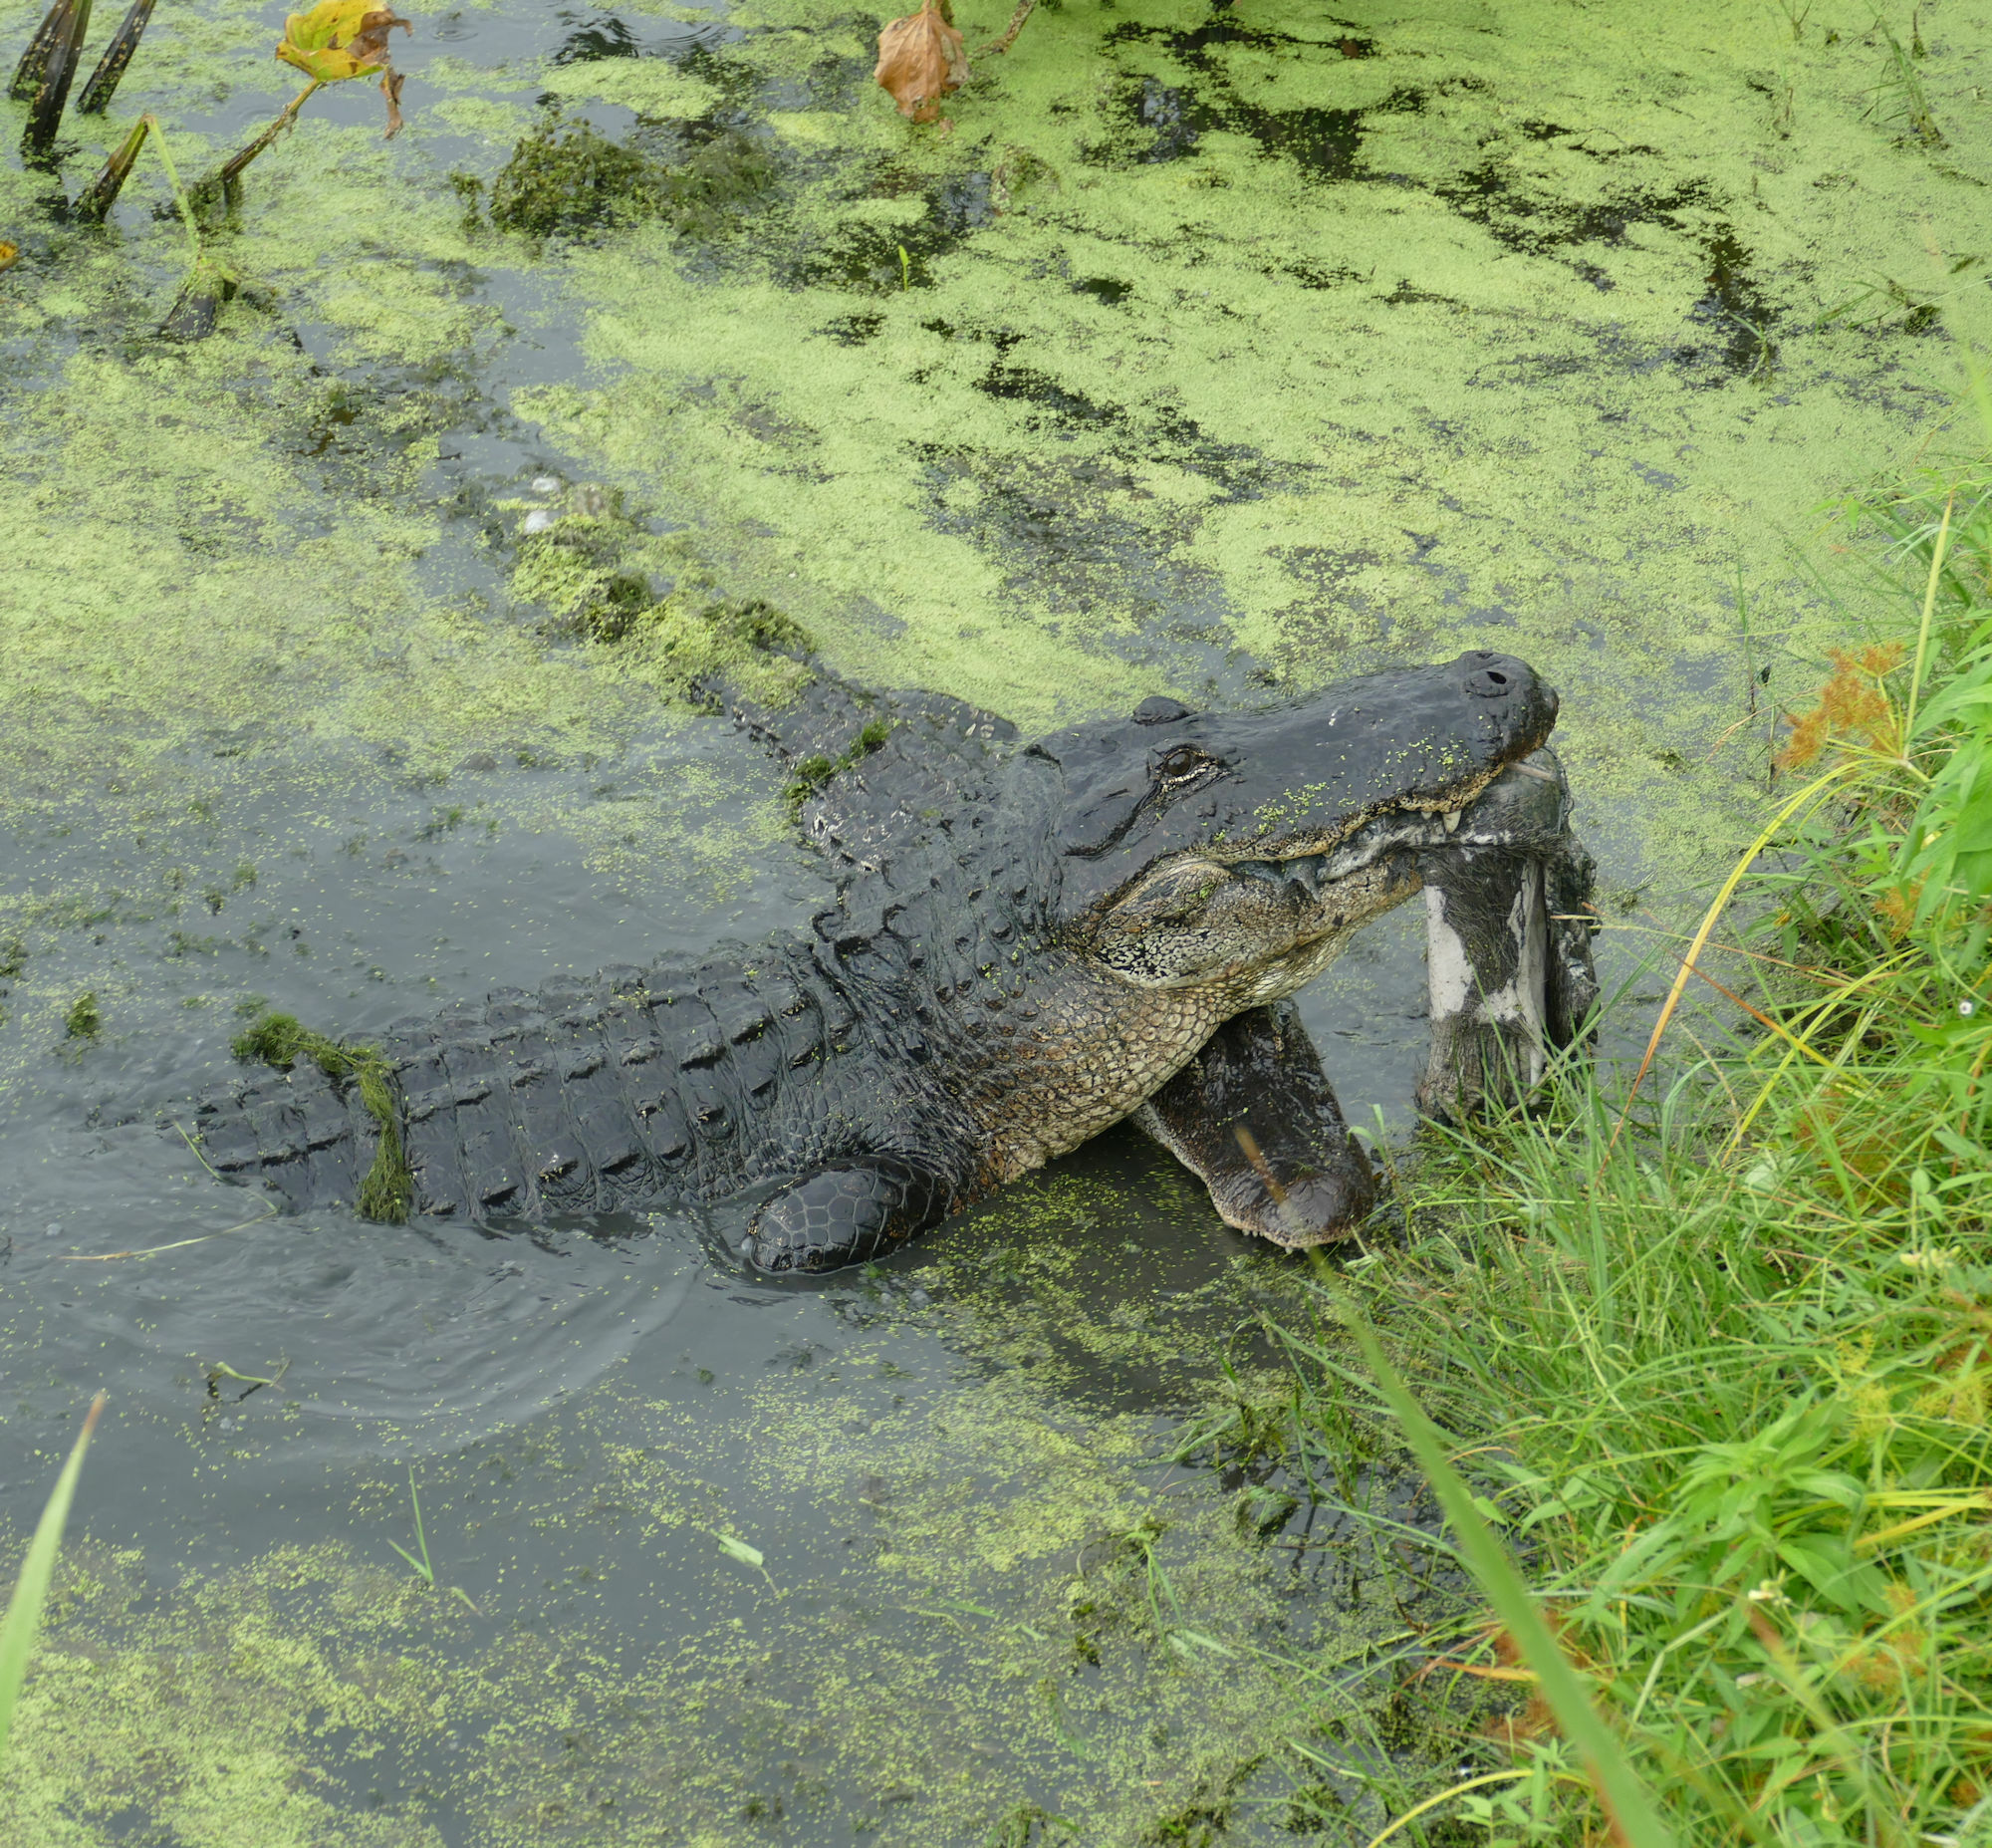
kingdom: Animalia
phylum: Chordata
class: Crocodylia
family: Alligatoridae
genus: Alligator
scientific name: Alligator mississippiensis
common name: American alligator
